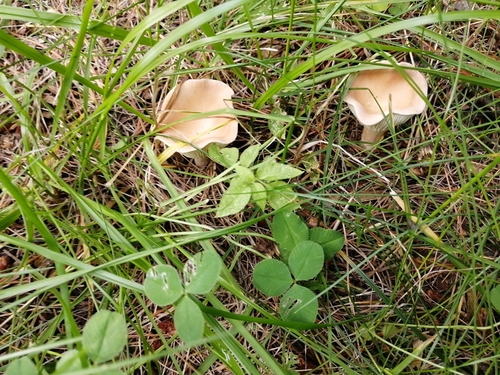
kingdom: Fungi
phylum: Basidiomycota
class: Agaricomycetes
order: Agaricales
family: Tricholomataceae
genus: Infundibulicybe
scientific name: Infundibulicybe gibba
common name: Common funnel
